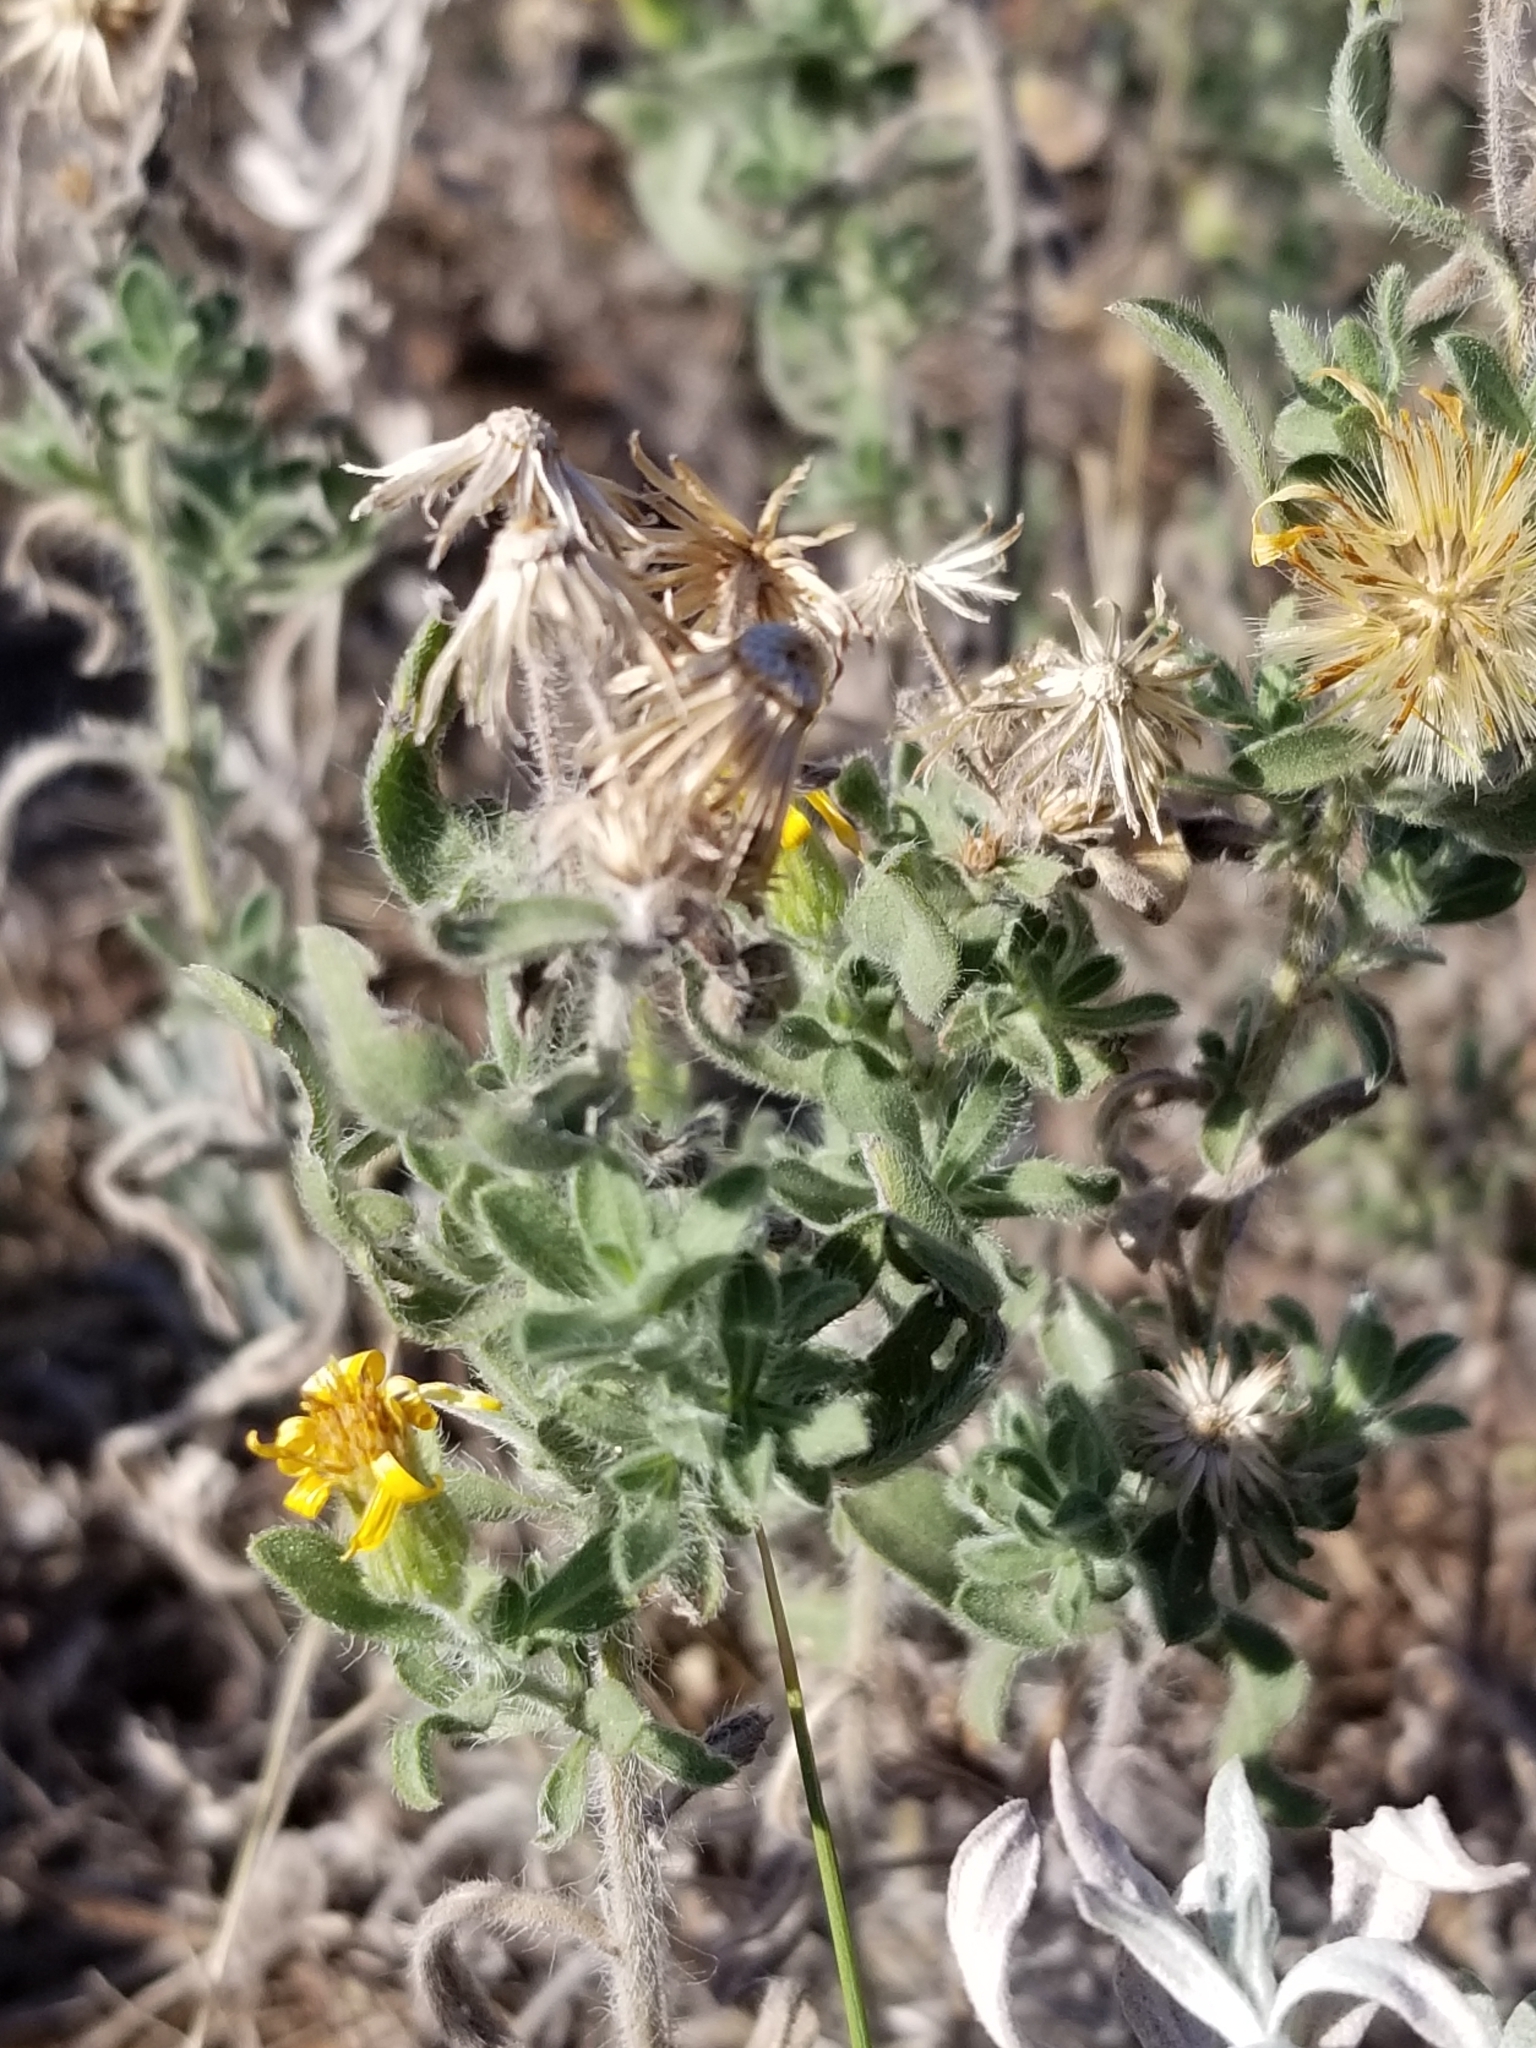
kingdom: Plantae
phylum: Tracheophyta
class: Magnoliopsida
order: Asterales
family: Asteraceae
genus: Heterotheca
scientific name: Heterotheca villosa
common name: Hairy false goldenaster
